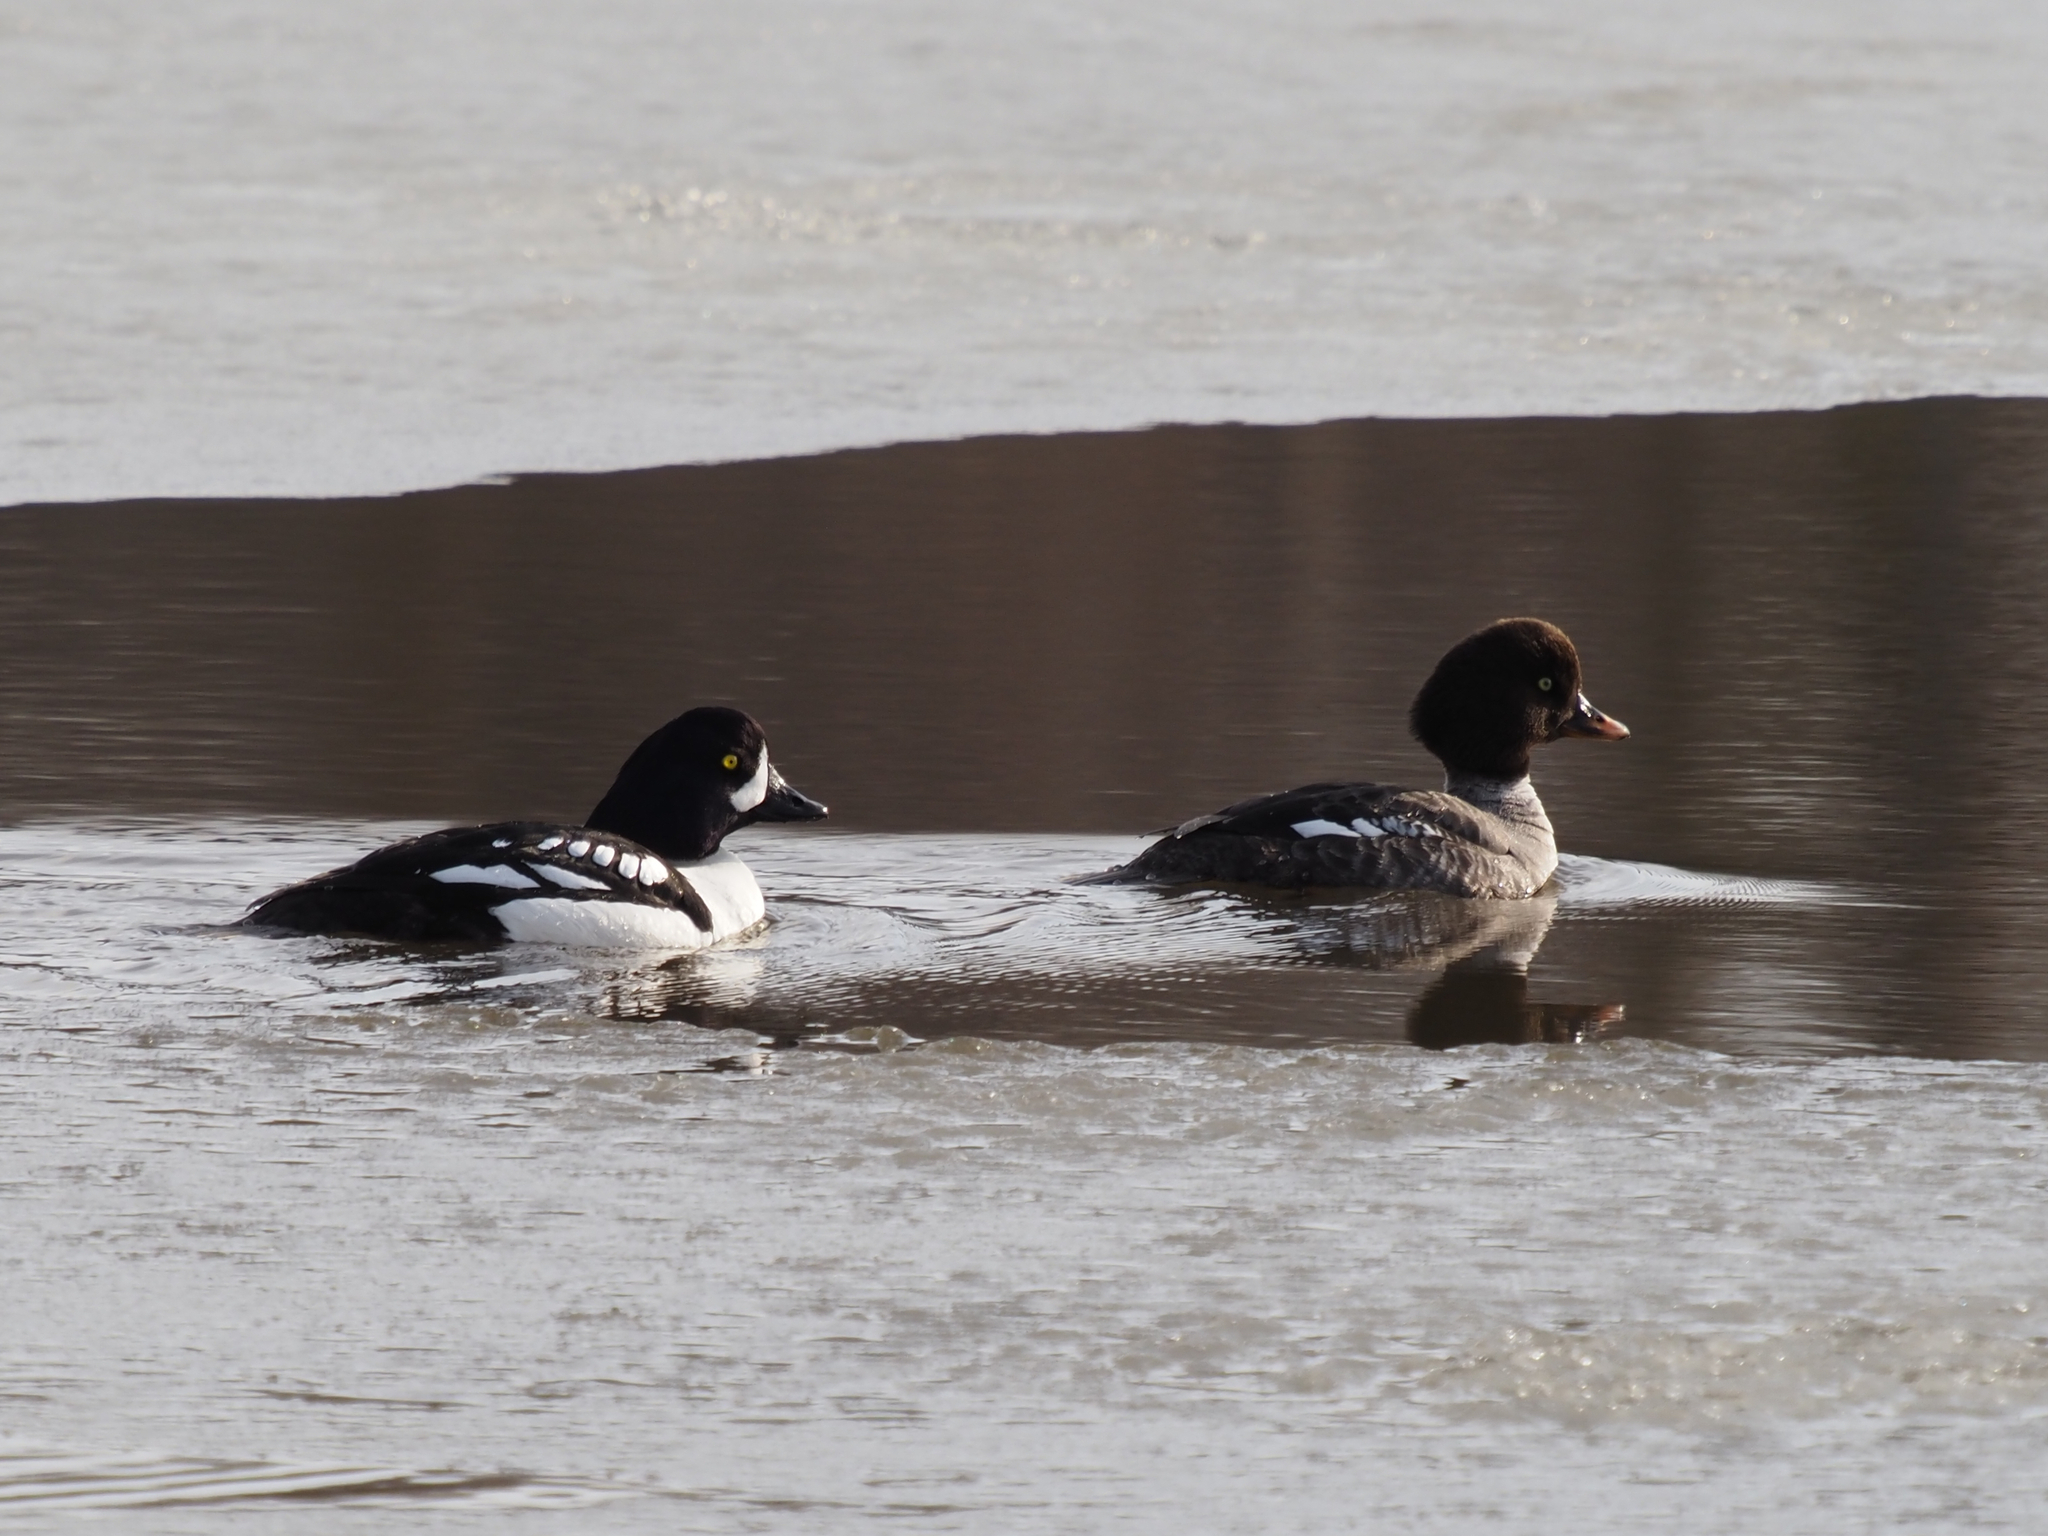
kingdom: Animalia
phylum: Chordata
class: Aves
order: Anseriformes
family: Anatidae
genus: Bucephala
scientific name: Bucephala islandica
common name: Barrow's goldeneye
